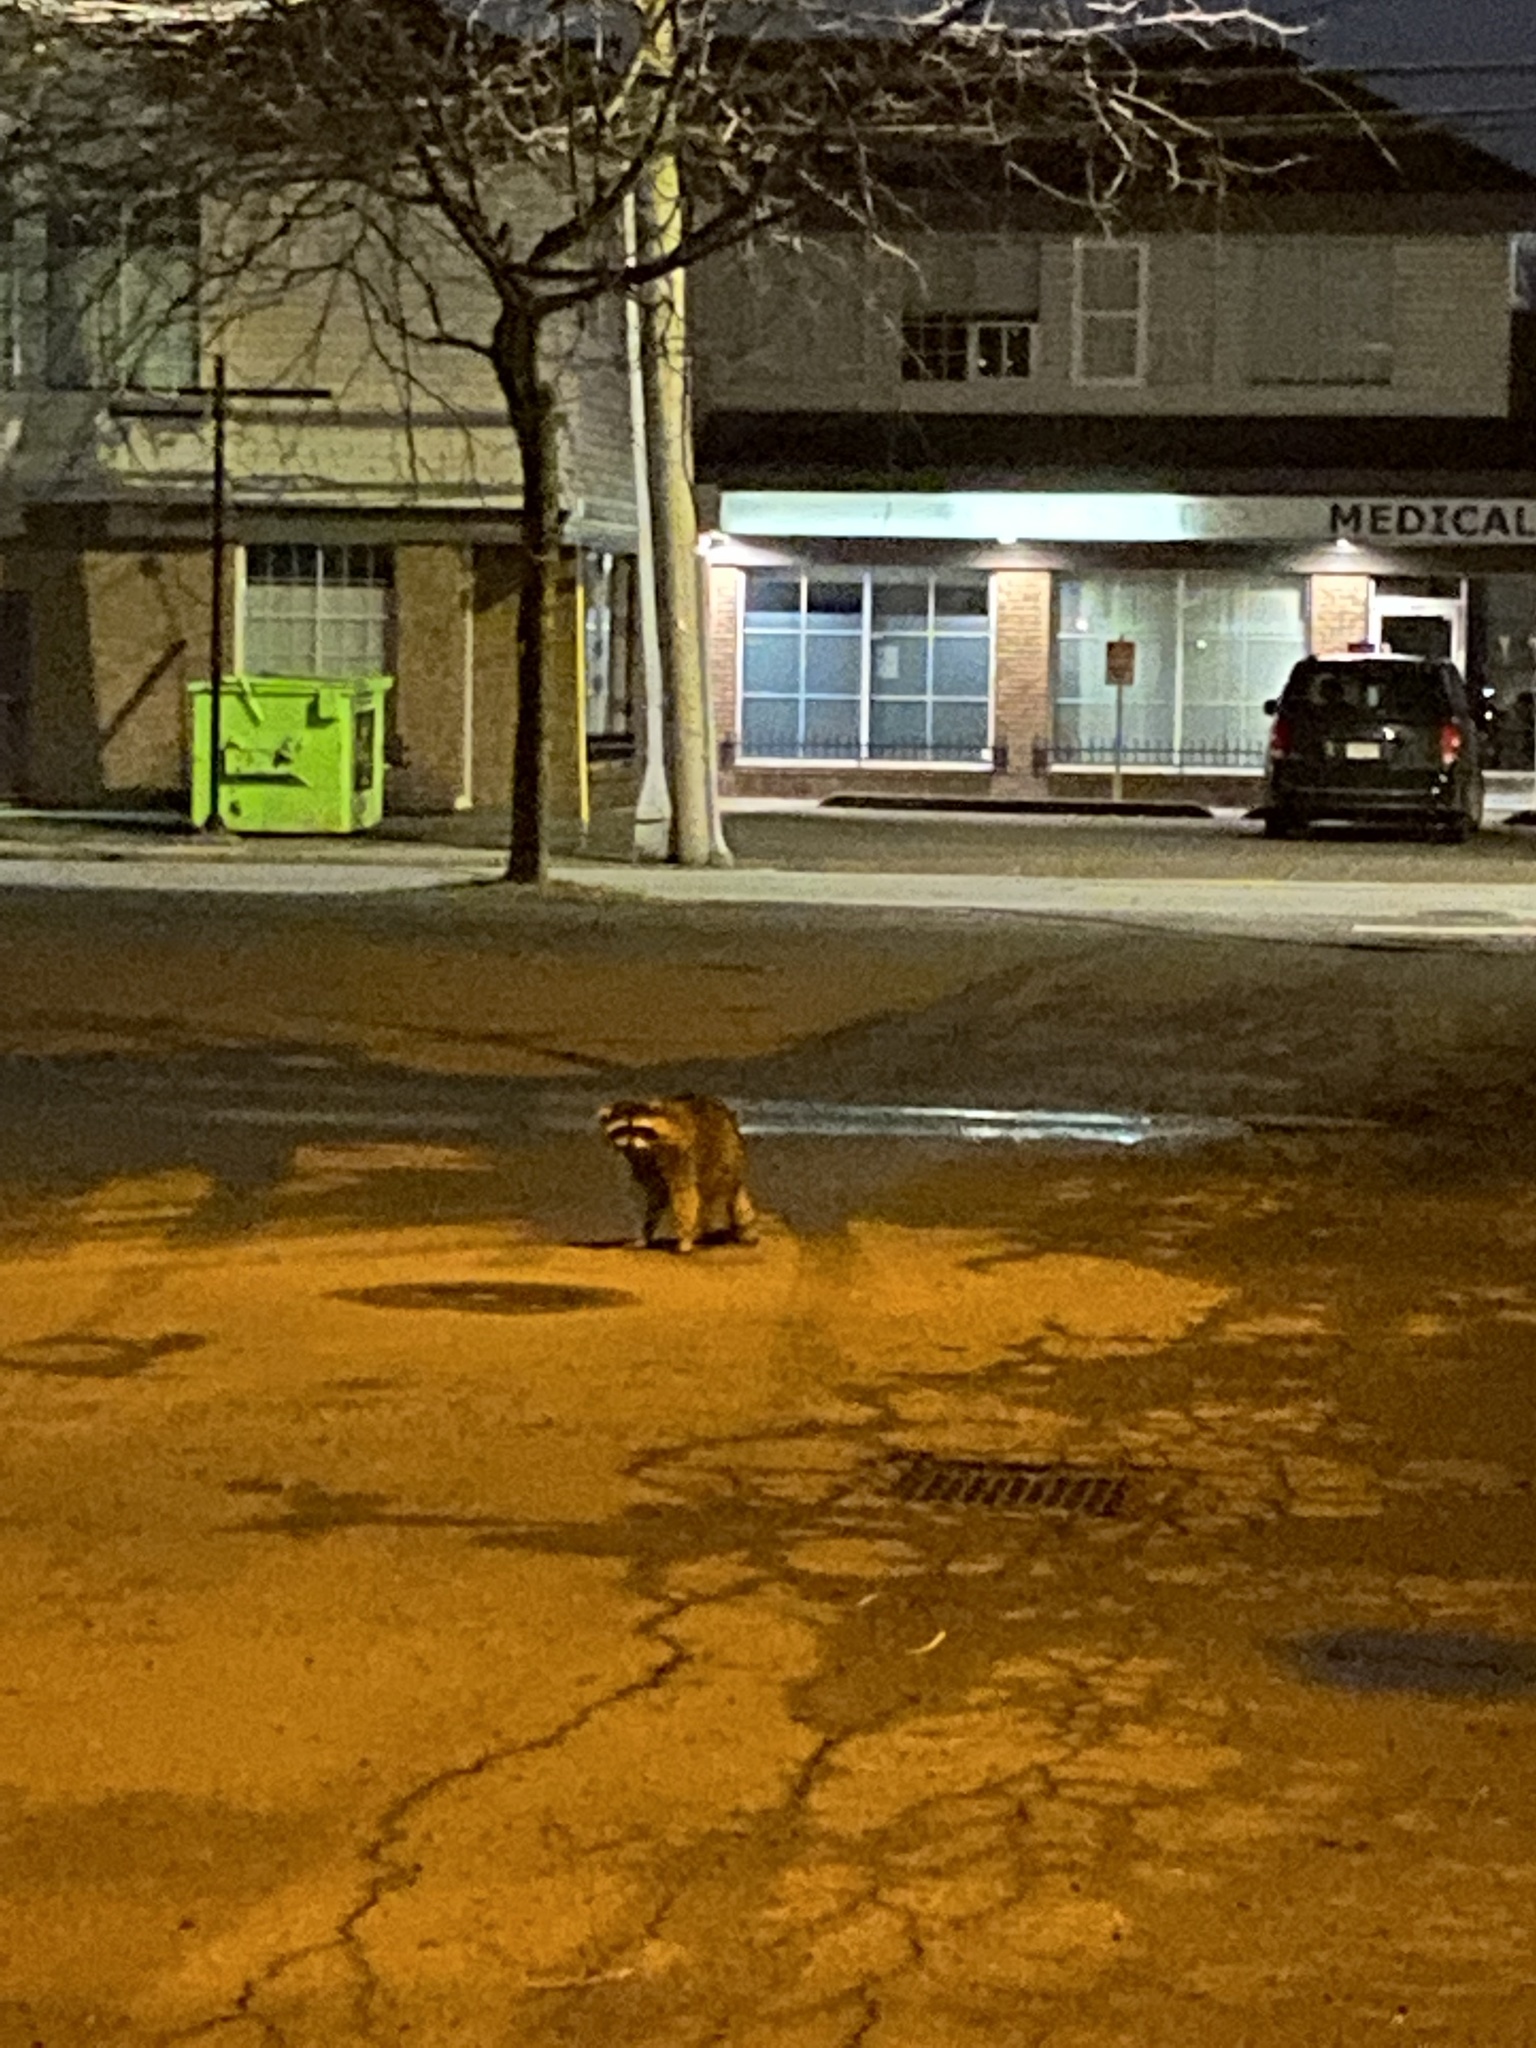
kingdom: Animalia
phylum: Chordata
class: Mammalia
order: Carnivora
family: Procyonidae
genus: Procyon
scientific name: Procyon lotor
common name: Raccoon
